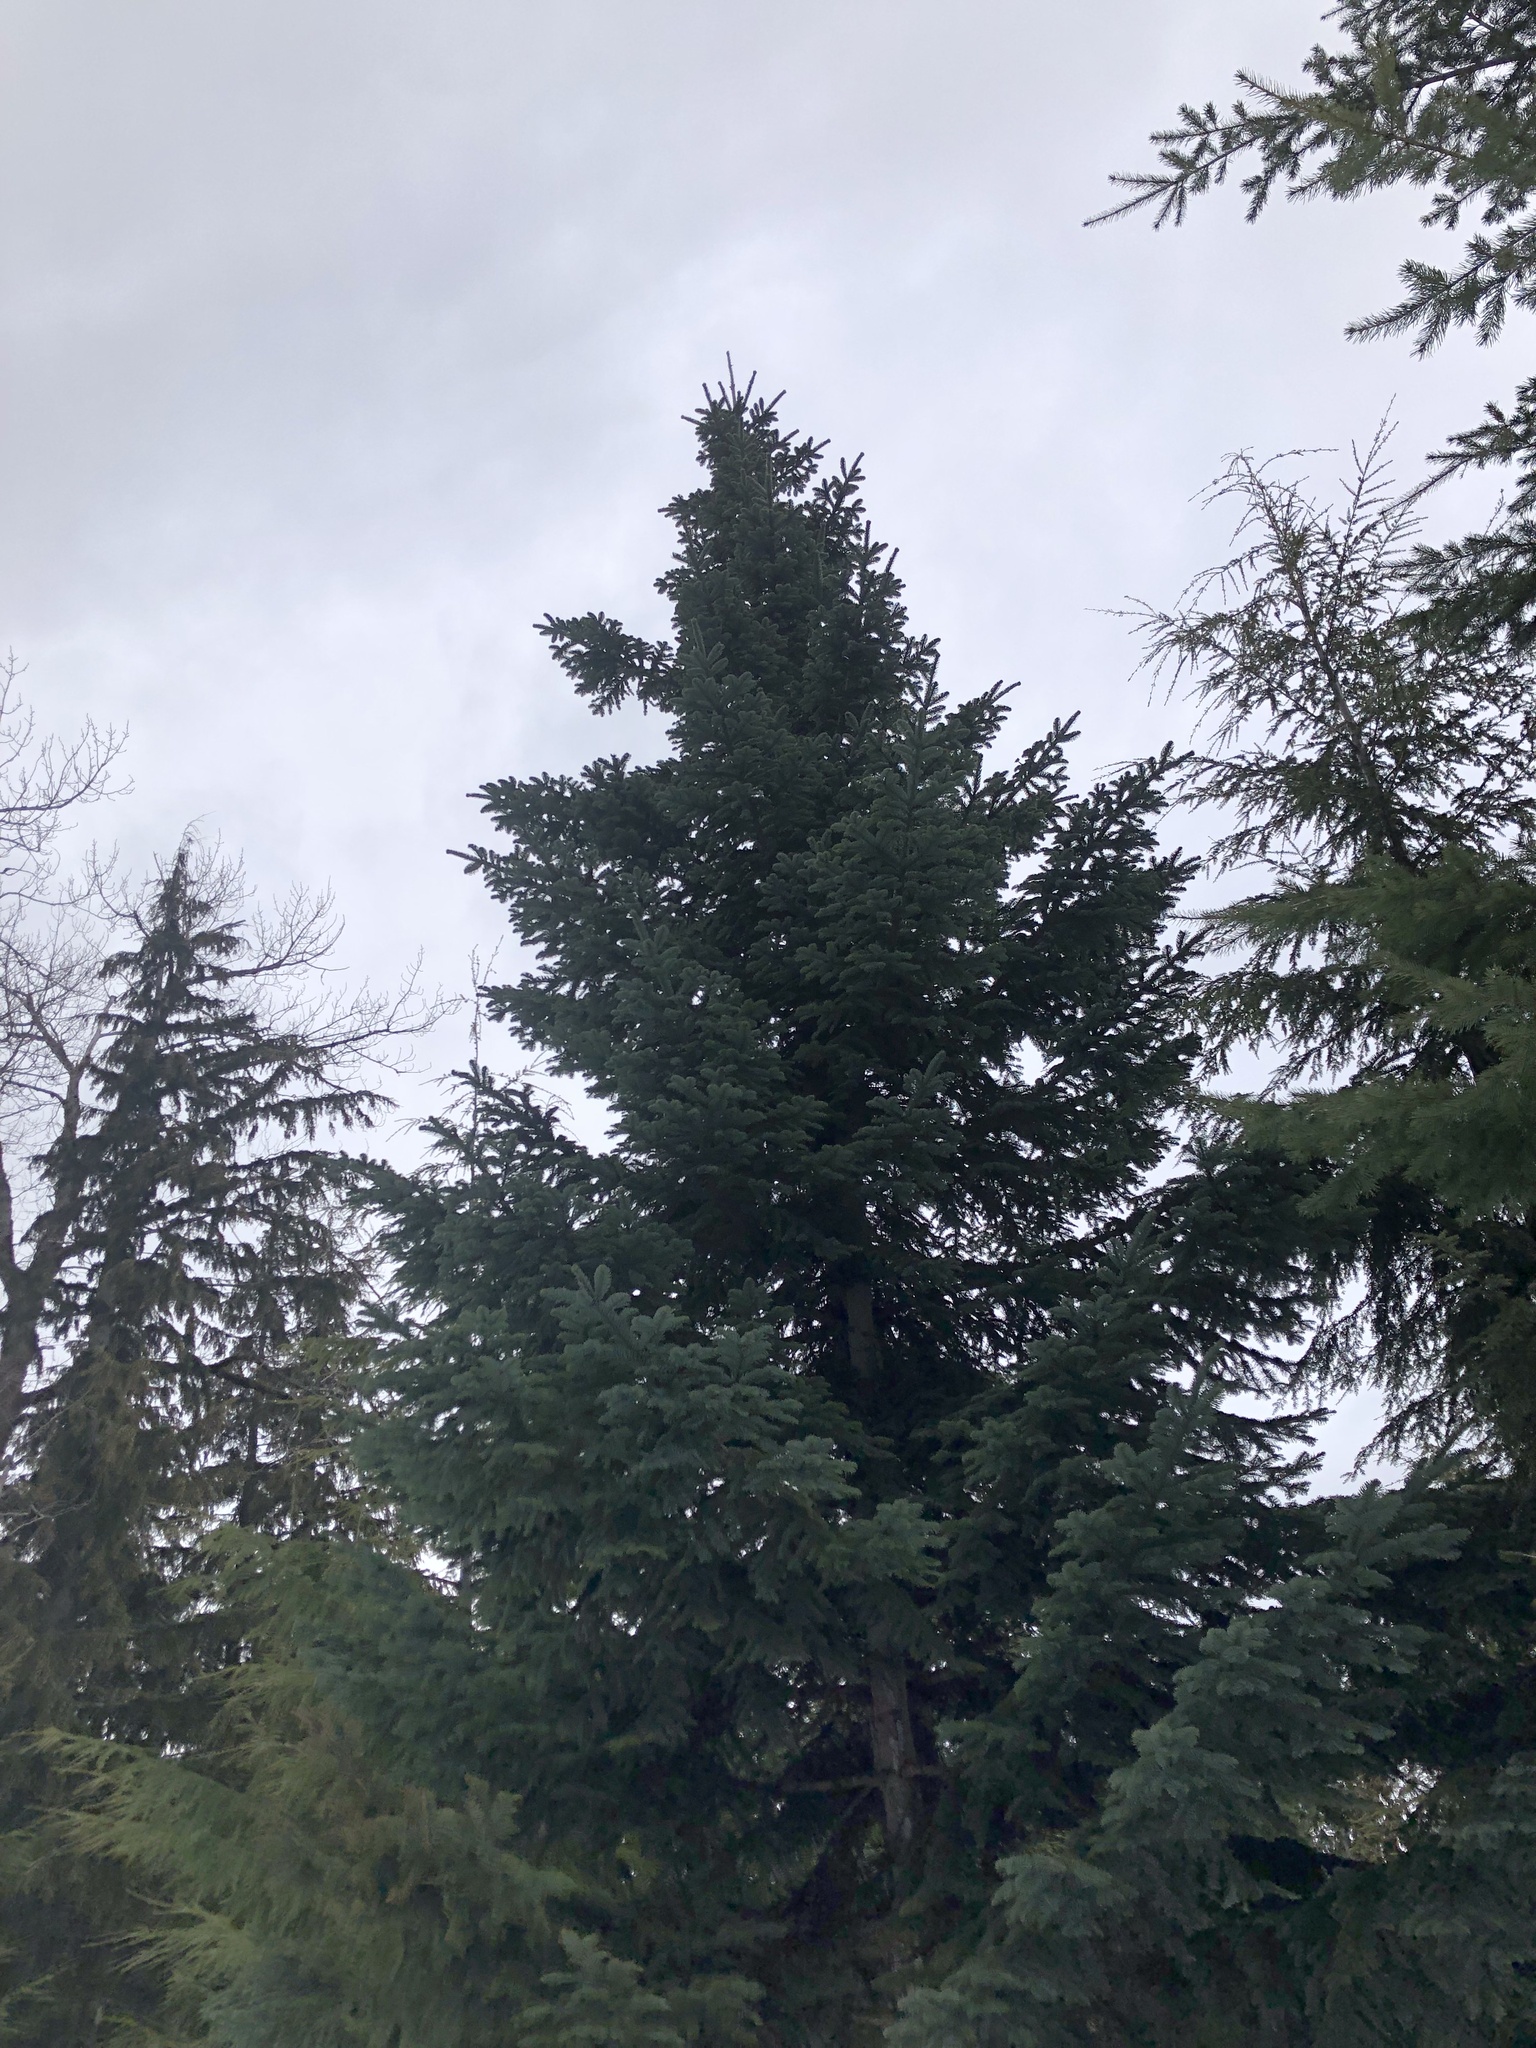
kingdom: Plantae
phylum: Tracheophyta
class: Pinopsida
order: Pinales
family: Pinaceae
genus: Abies
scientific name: Abies procera
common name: Noble fir
